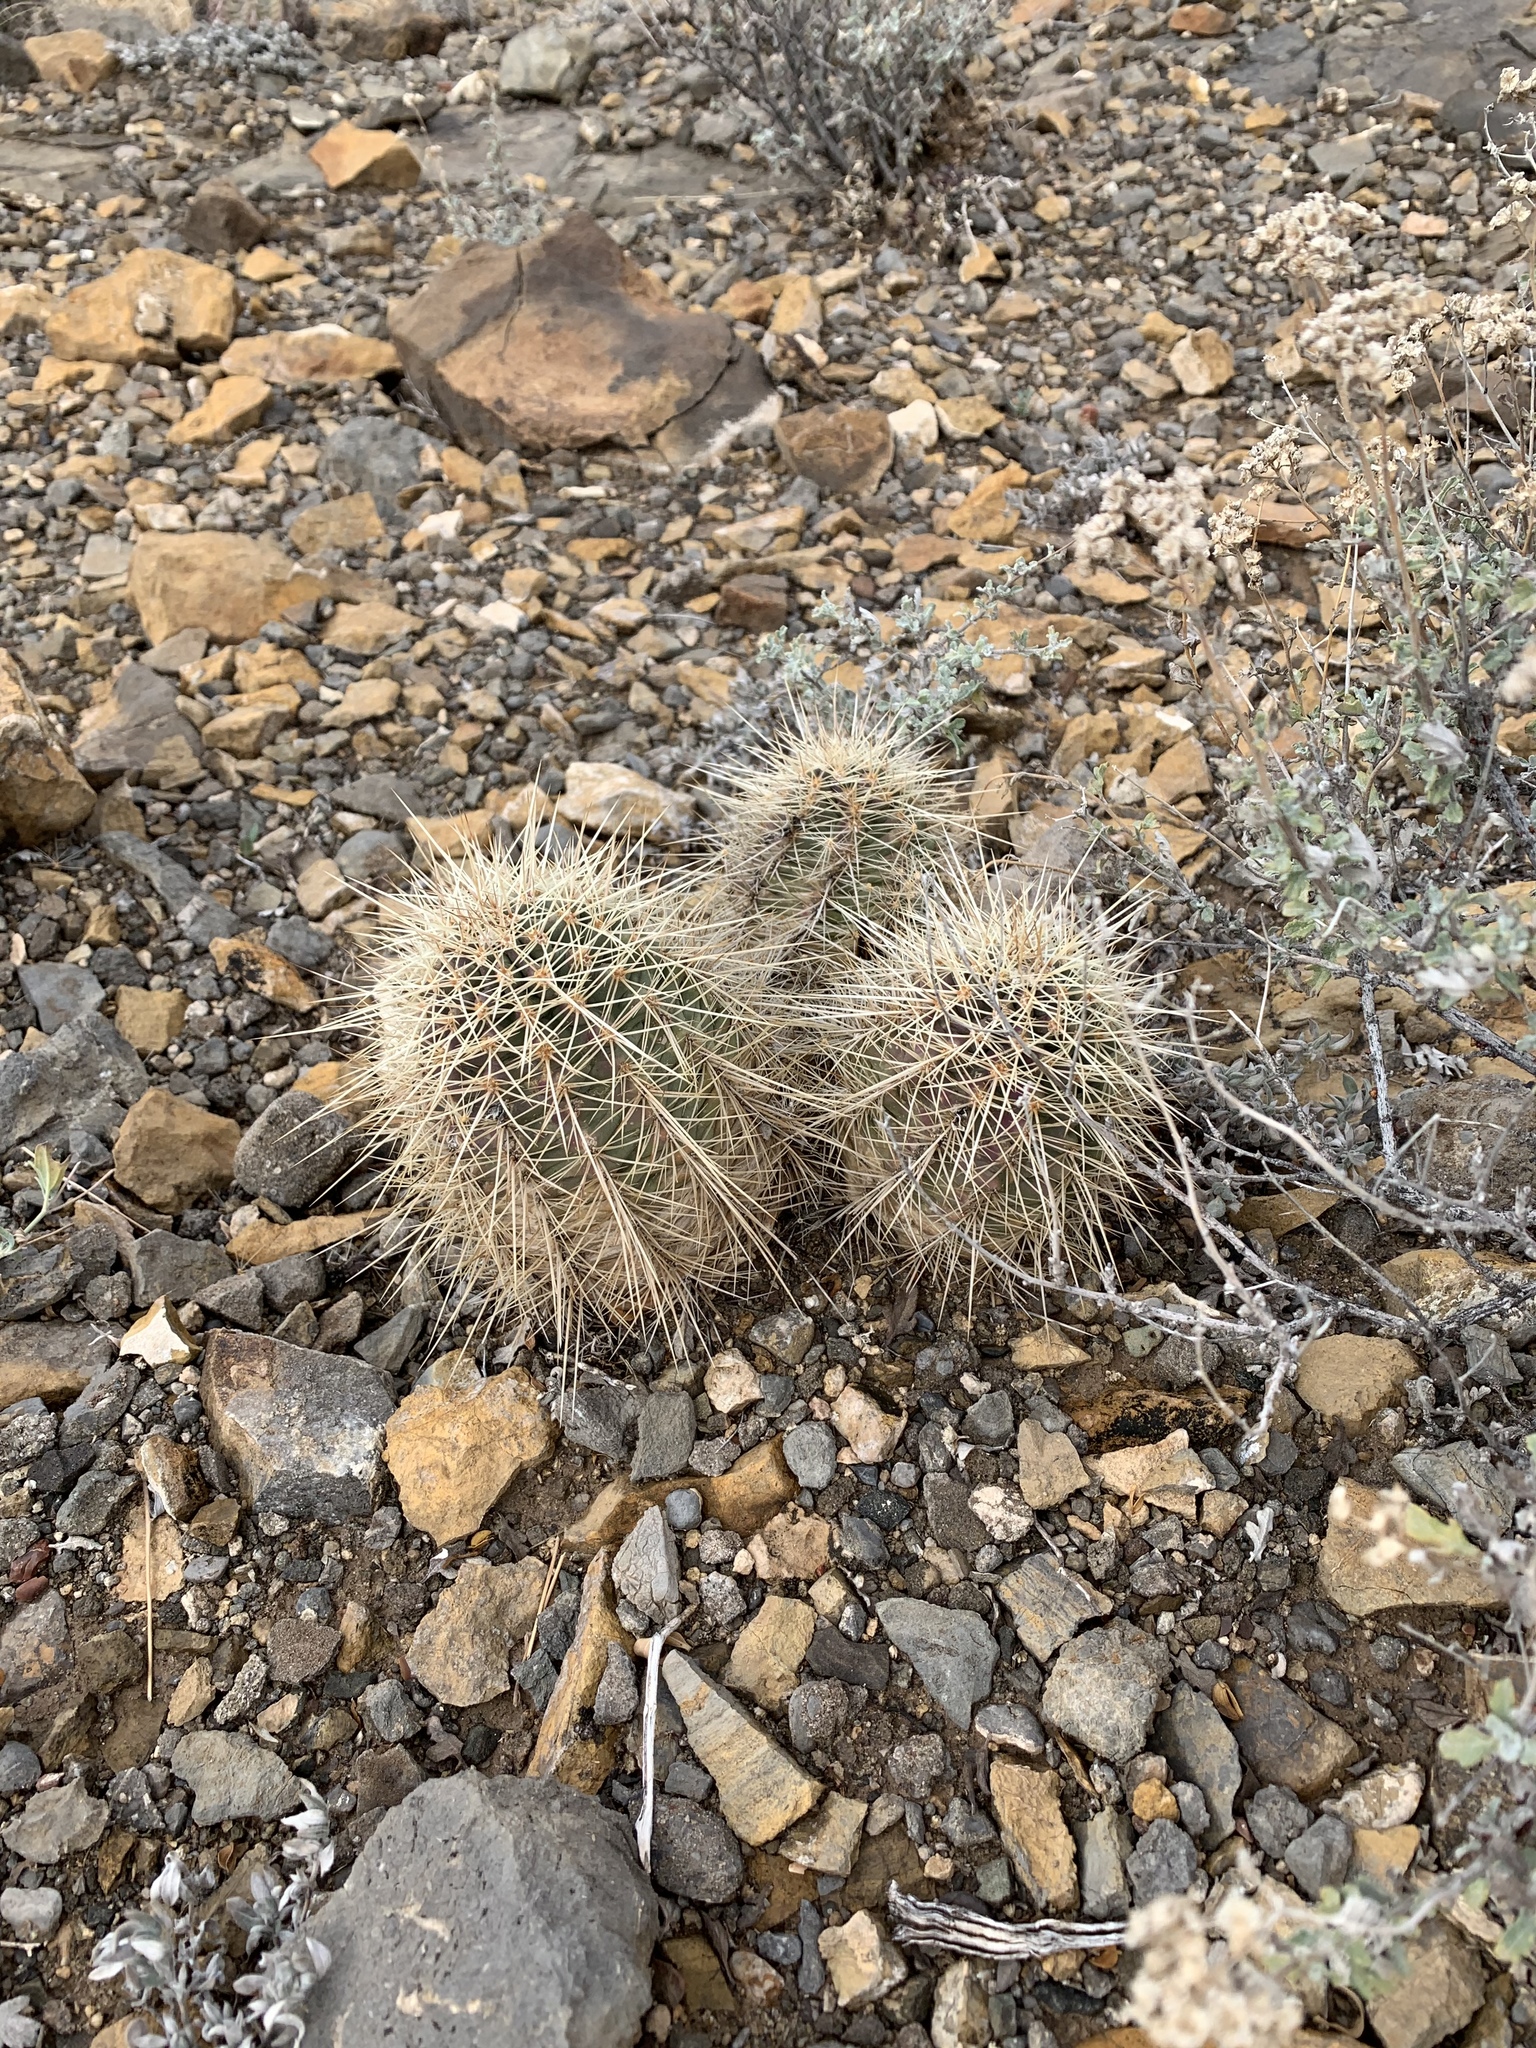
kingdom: Plantae
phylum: Tracheophyta
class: Magnoliopsida
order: Caryophyllales
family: Cactaceae
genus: Echinocereus
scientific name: Echinocereus coccineus
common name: Scarlet hedgehog cactus
